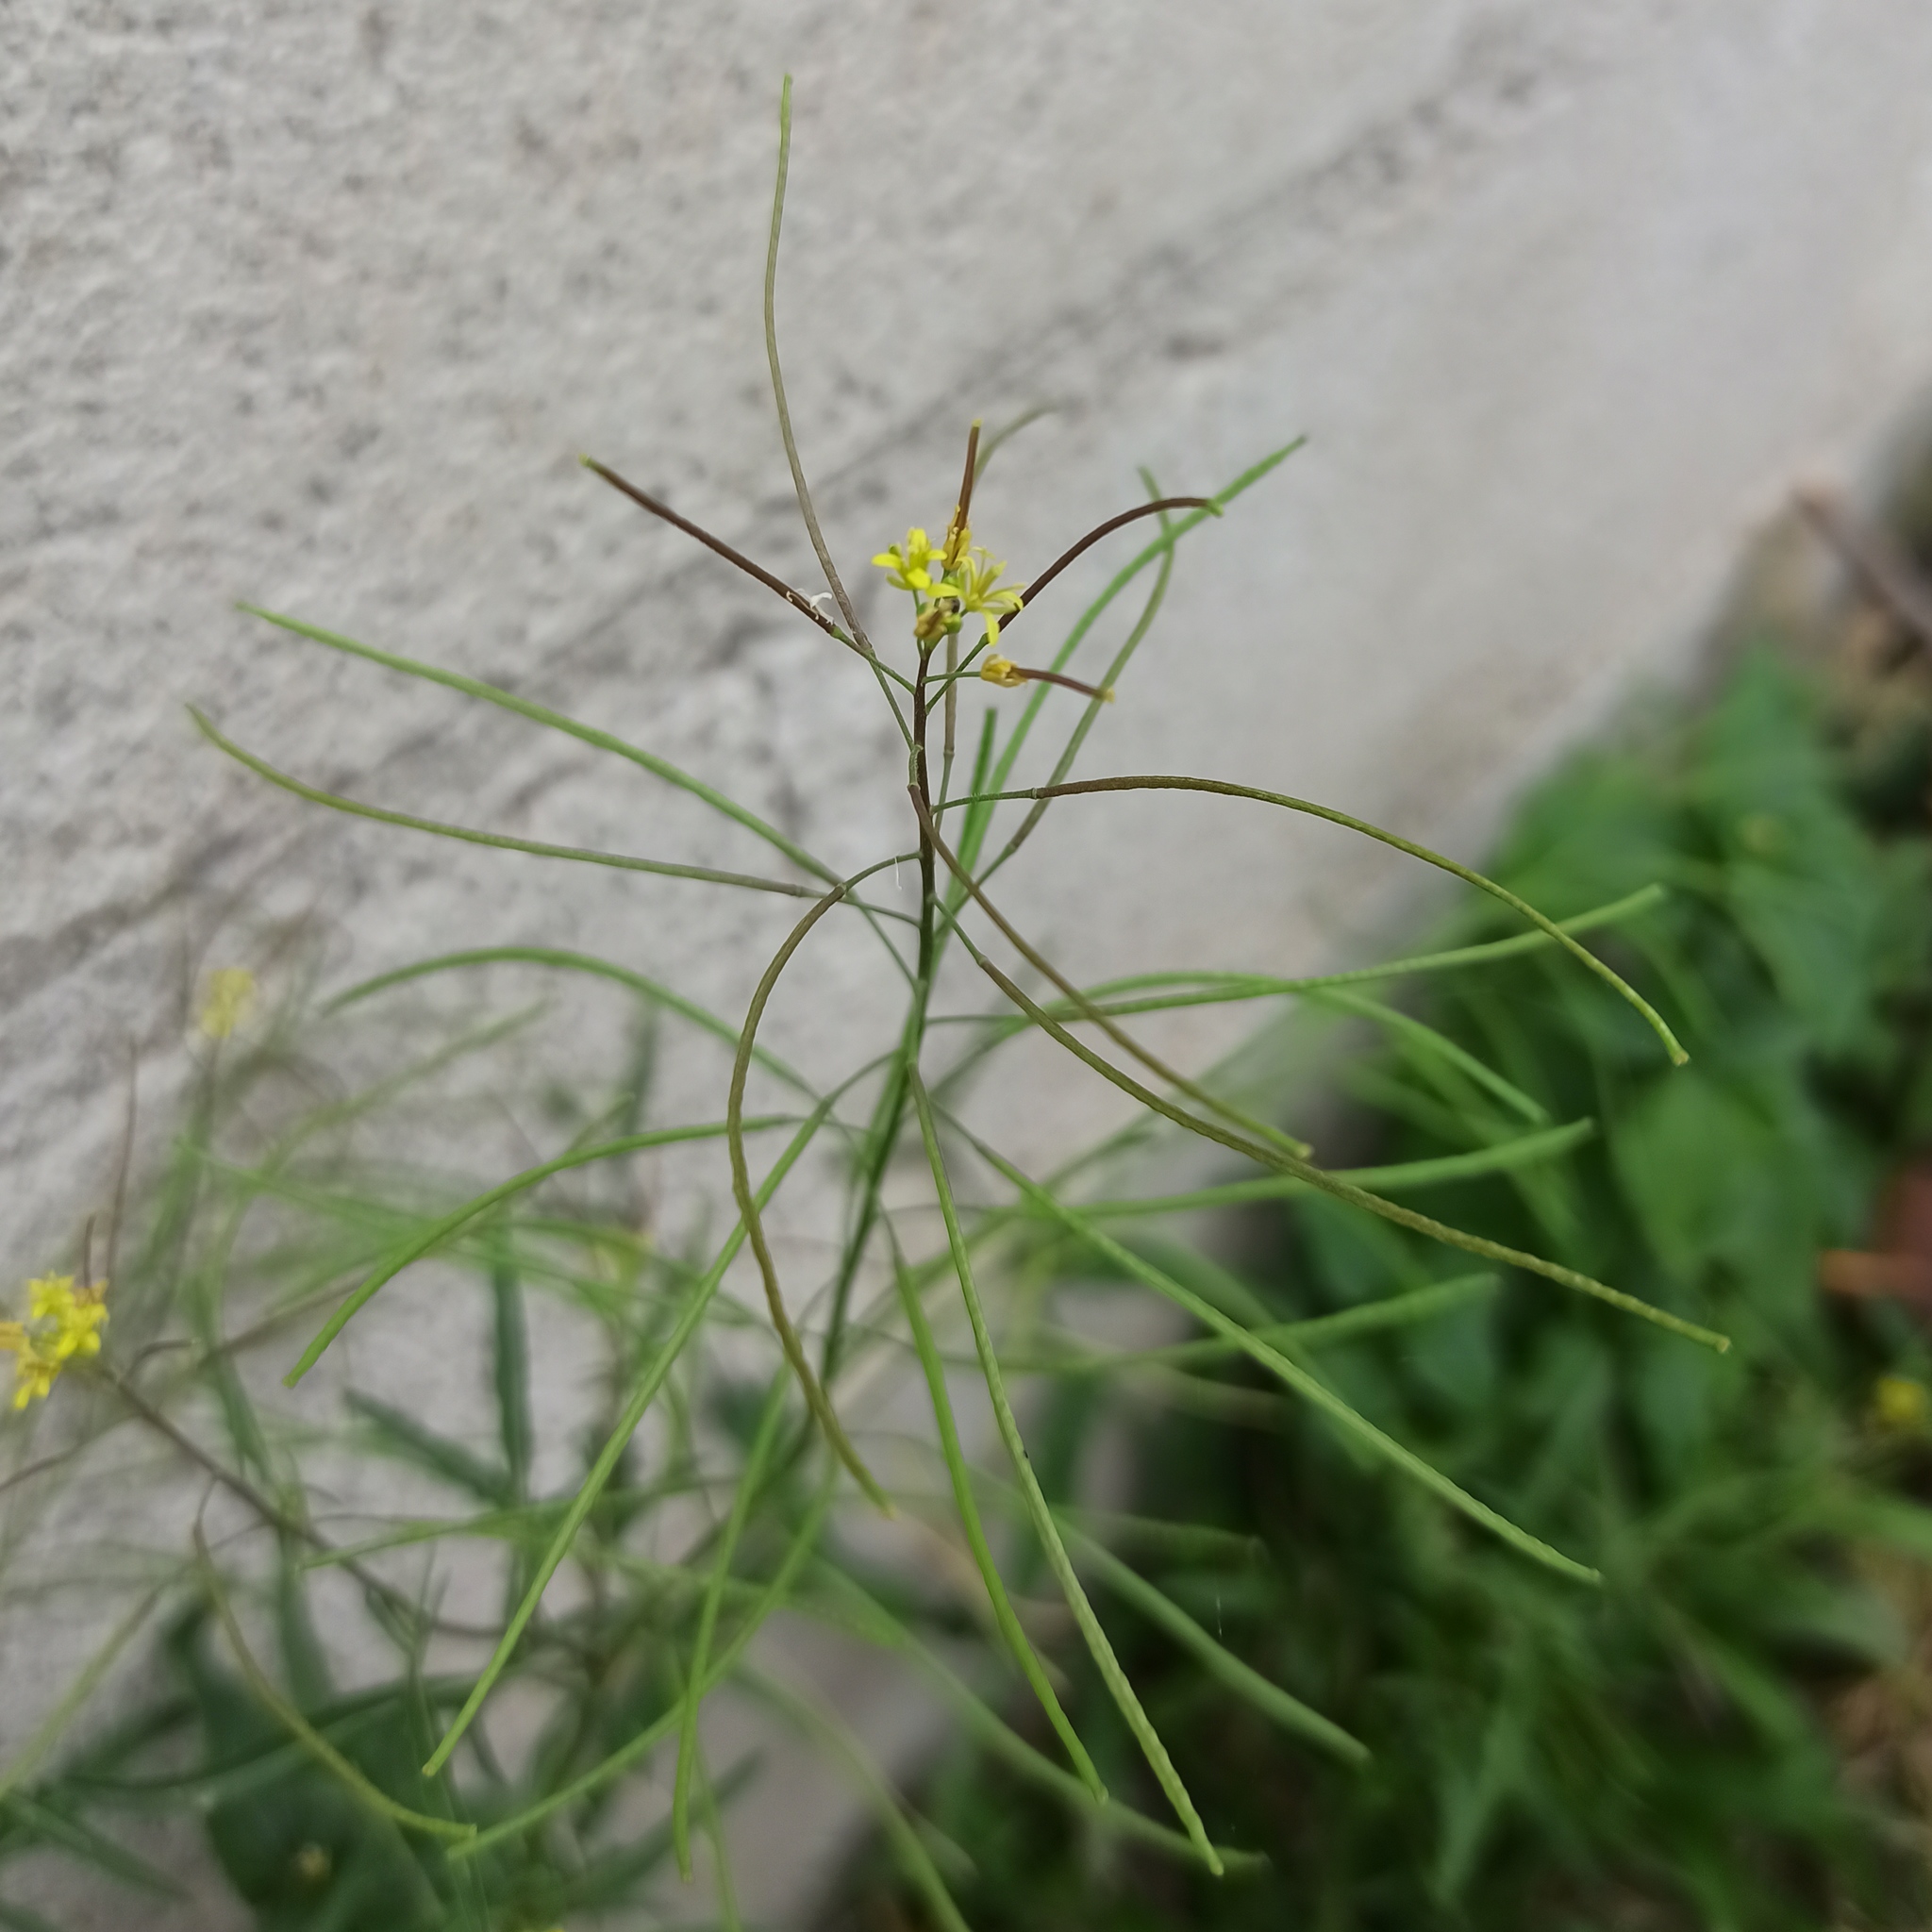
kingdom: Plantae
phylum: Tracheophyta
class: Magnoliopsida
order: Brassicales
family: Brassicaceae
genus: Sisymbrium
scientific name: Sisymbrium irio
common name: London rocket
